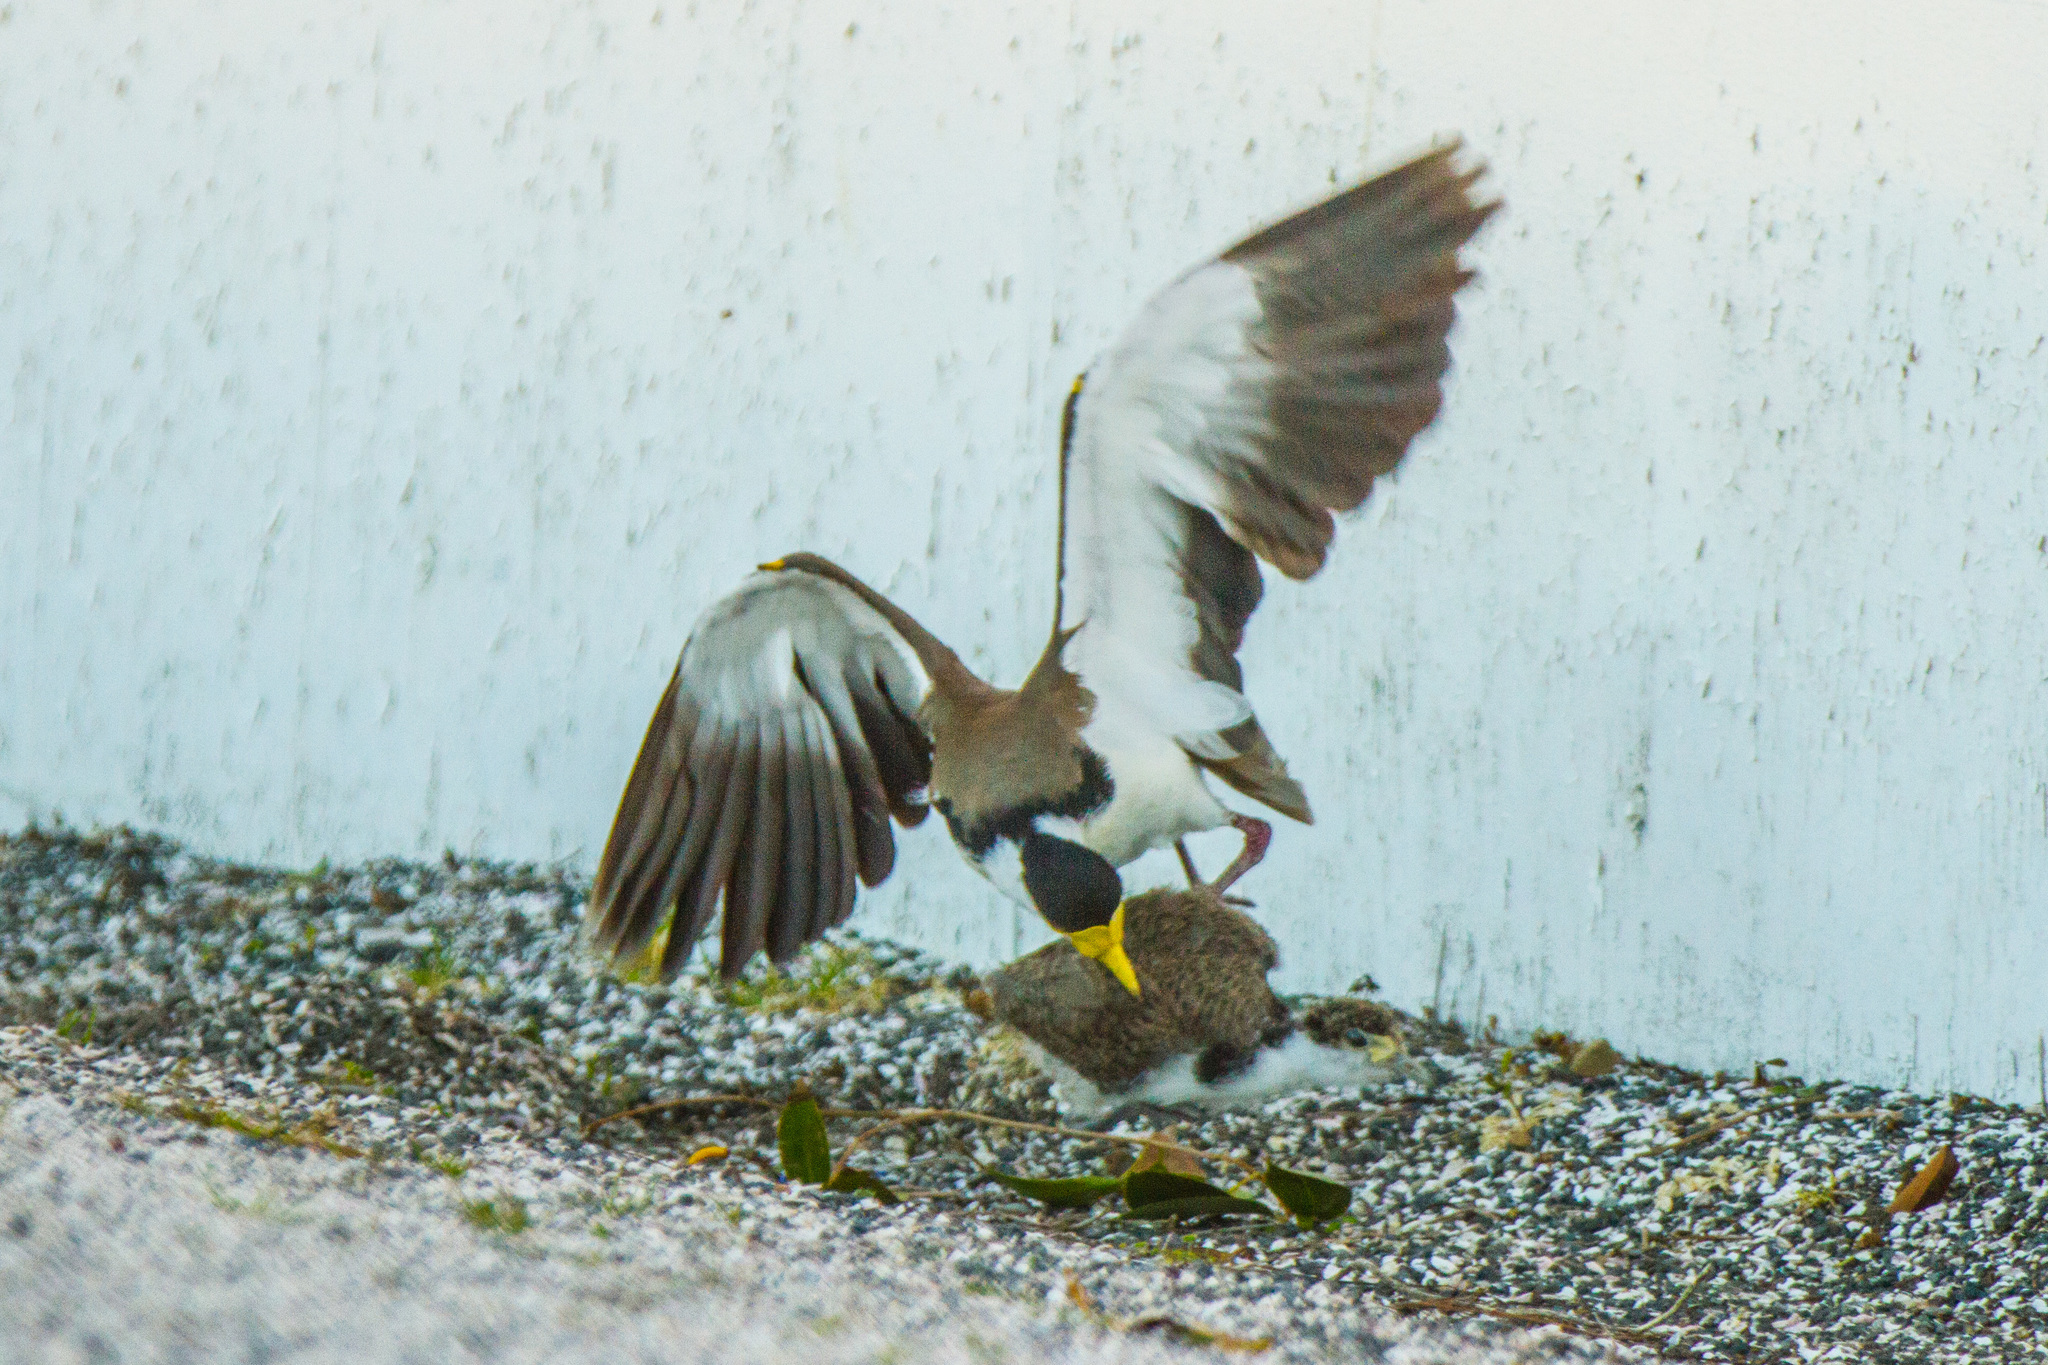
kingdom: Animalia
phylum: Chordata
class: Aves
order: Charadriiformes
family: Charadriidae
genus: Vanellus
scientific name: Vanellus miles
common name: Masked lapwing
